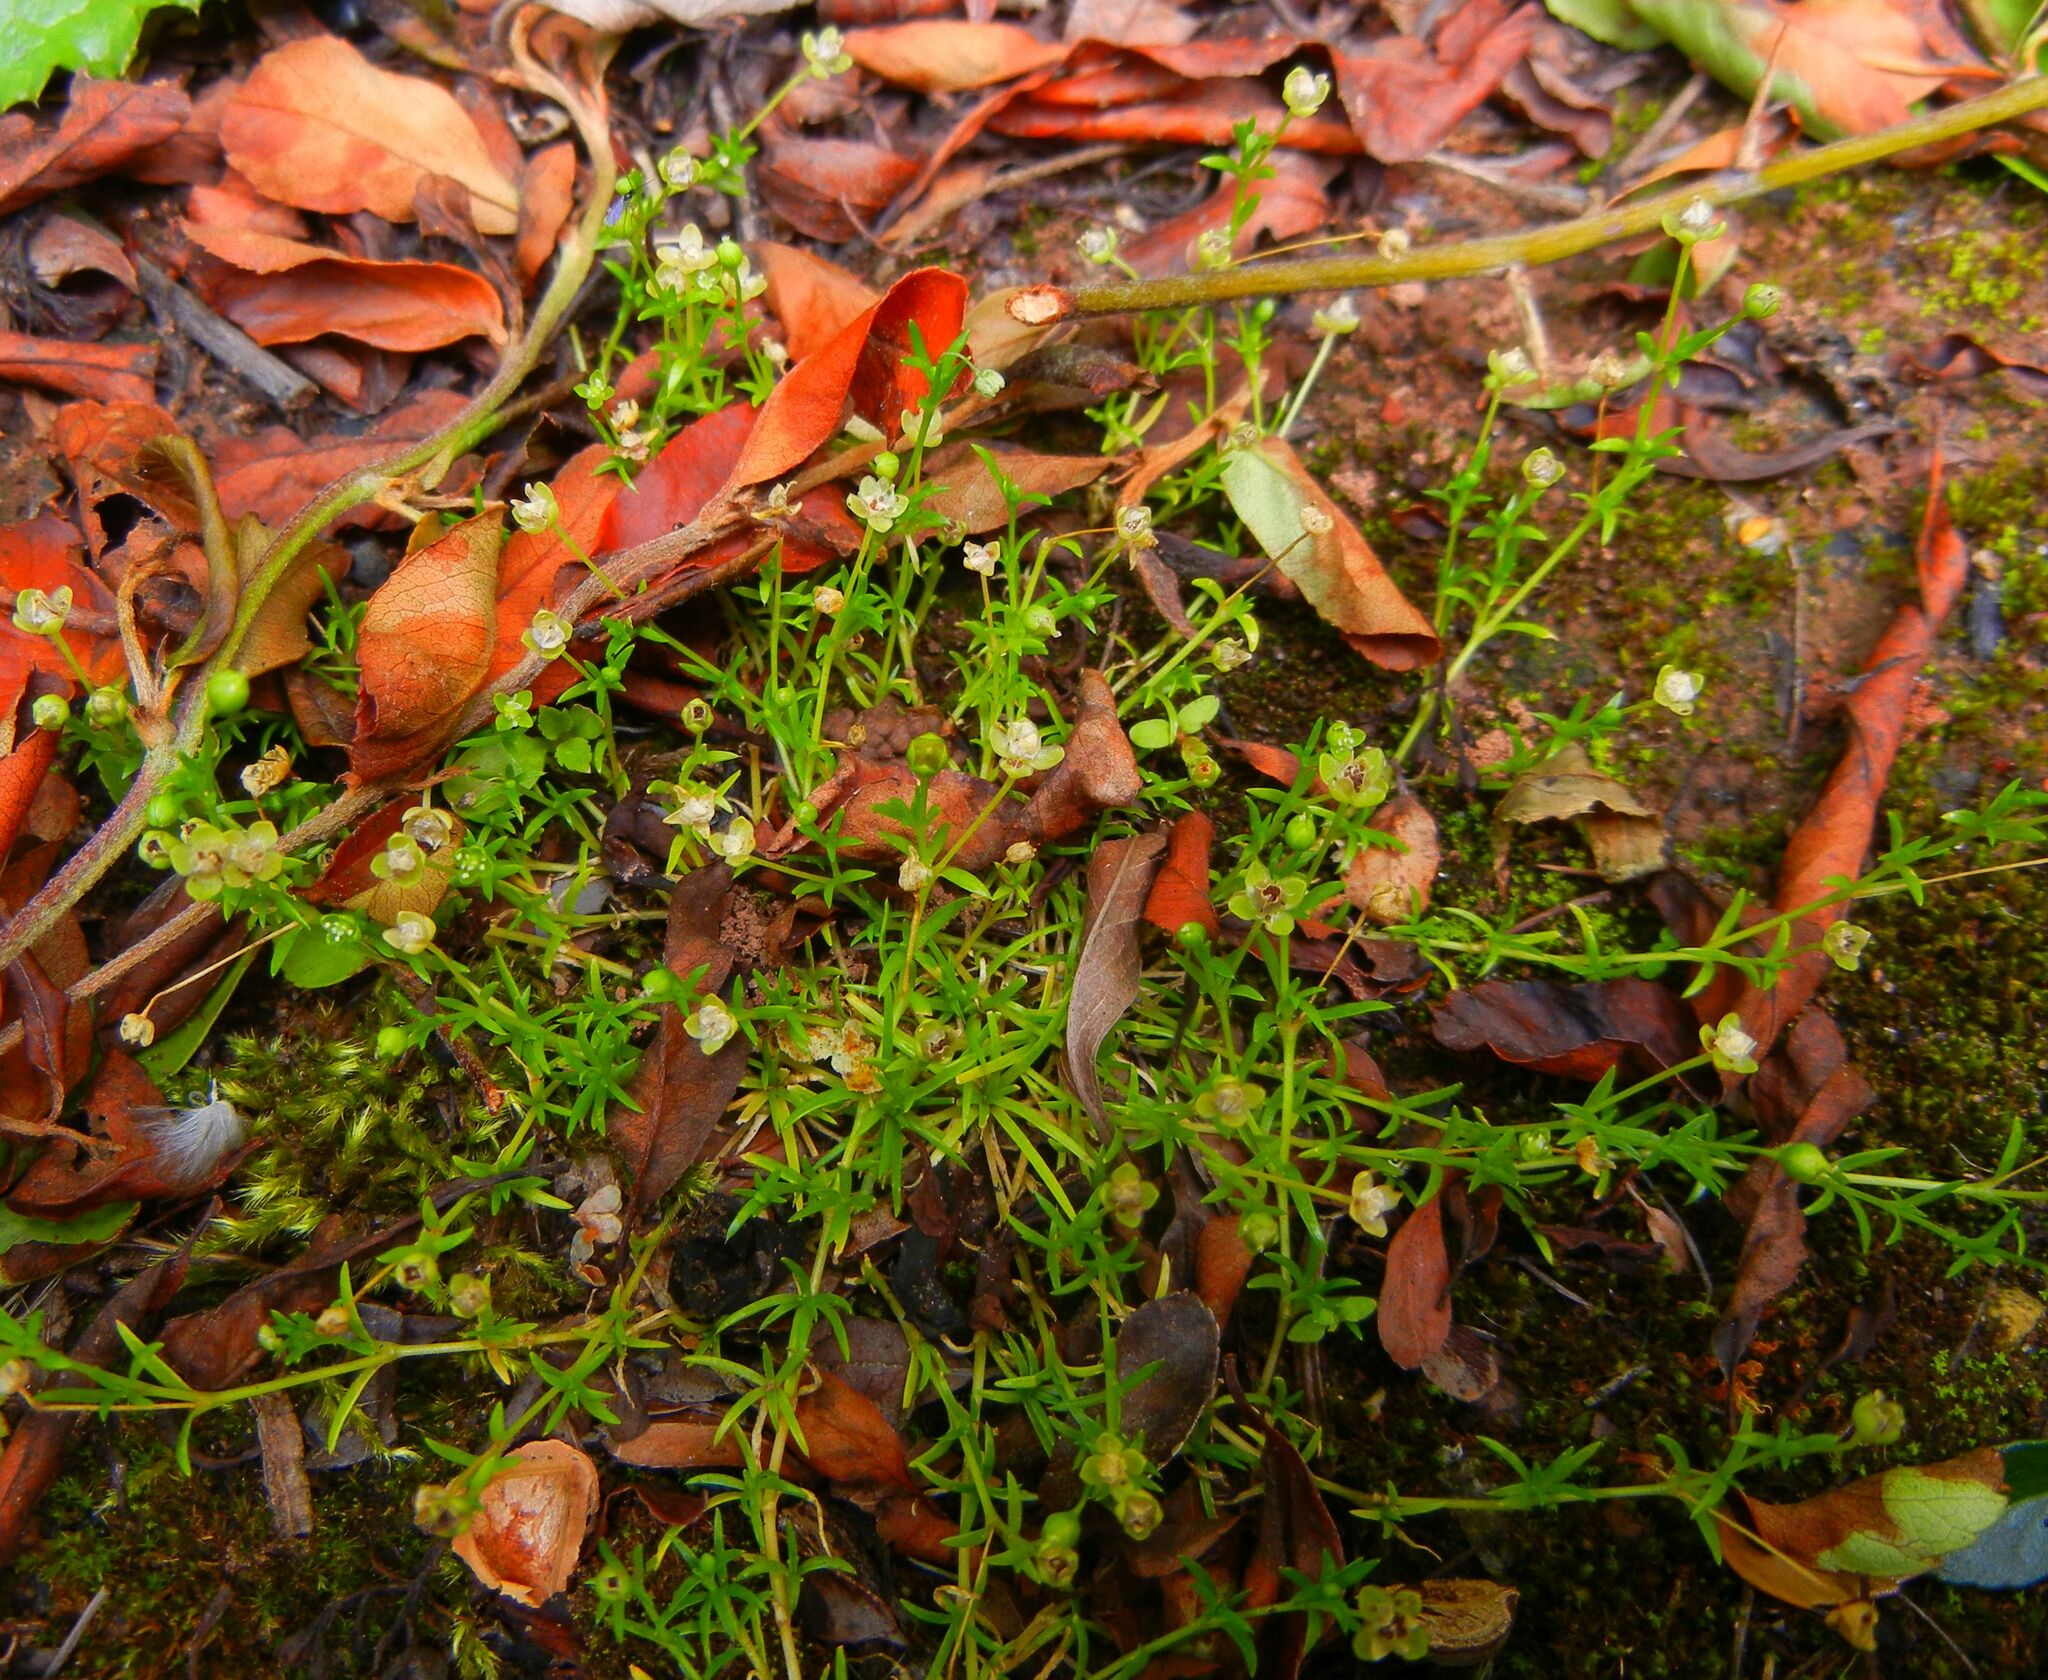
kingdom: Plantae
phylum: Tracheophyta
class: Magnoliopsida
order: Caryophyllales
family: Caryophyllaceae
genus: Sagina
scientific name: Sagina procumbens
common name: Procumbent pearlwort
